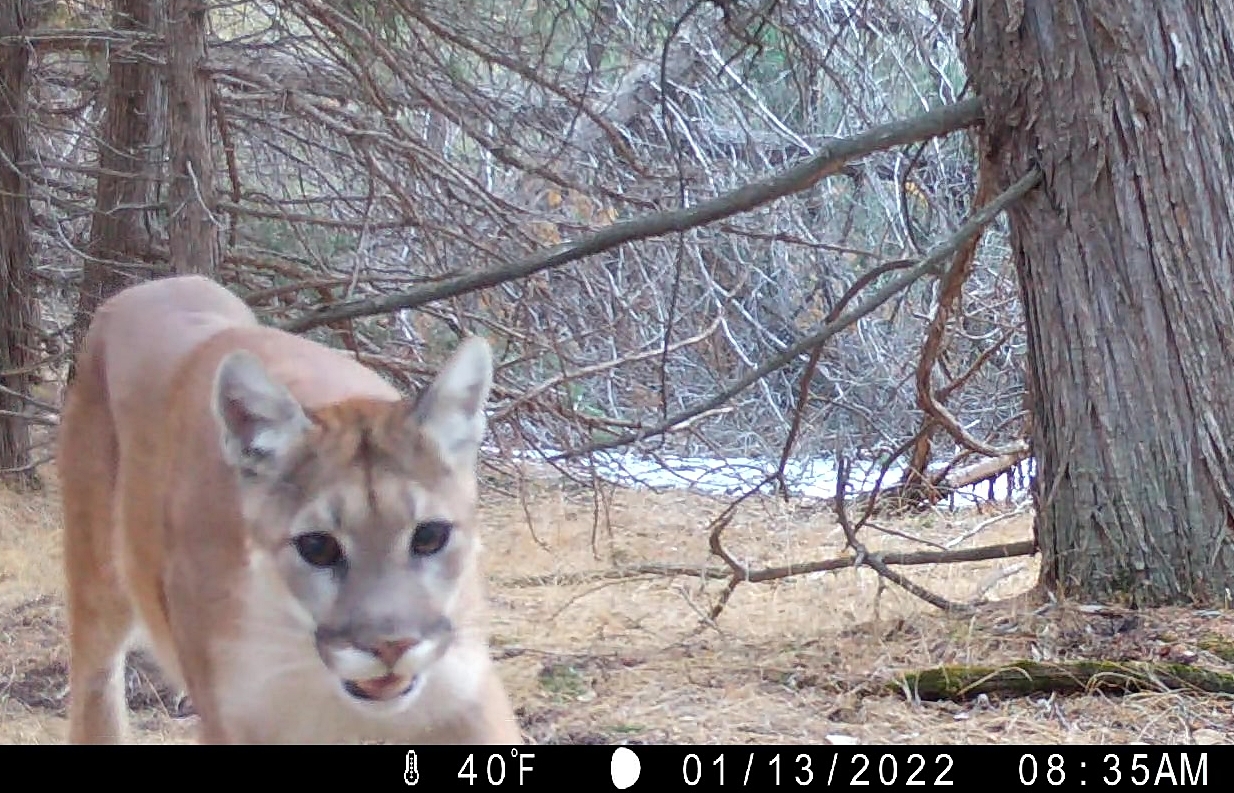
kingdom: Animalia
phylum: Chordata
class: Mammalia
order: Carnivora
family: Felidae
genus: Puma
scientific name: Puma concolor
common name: Puma
